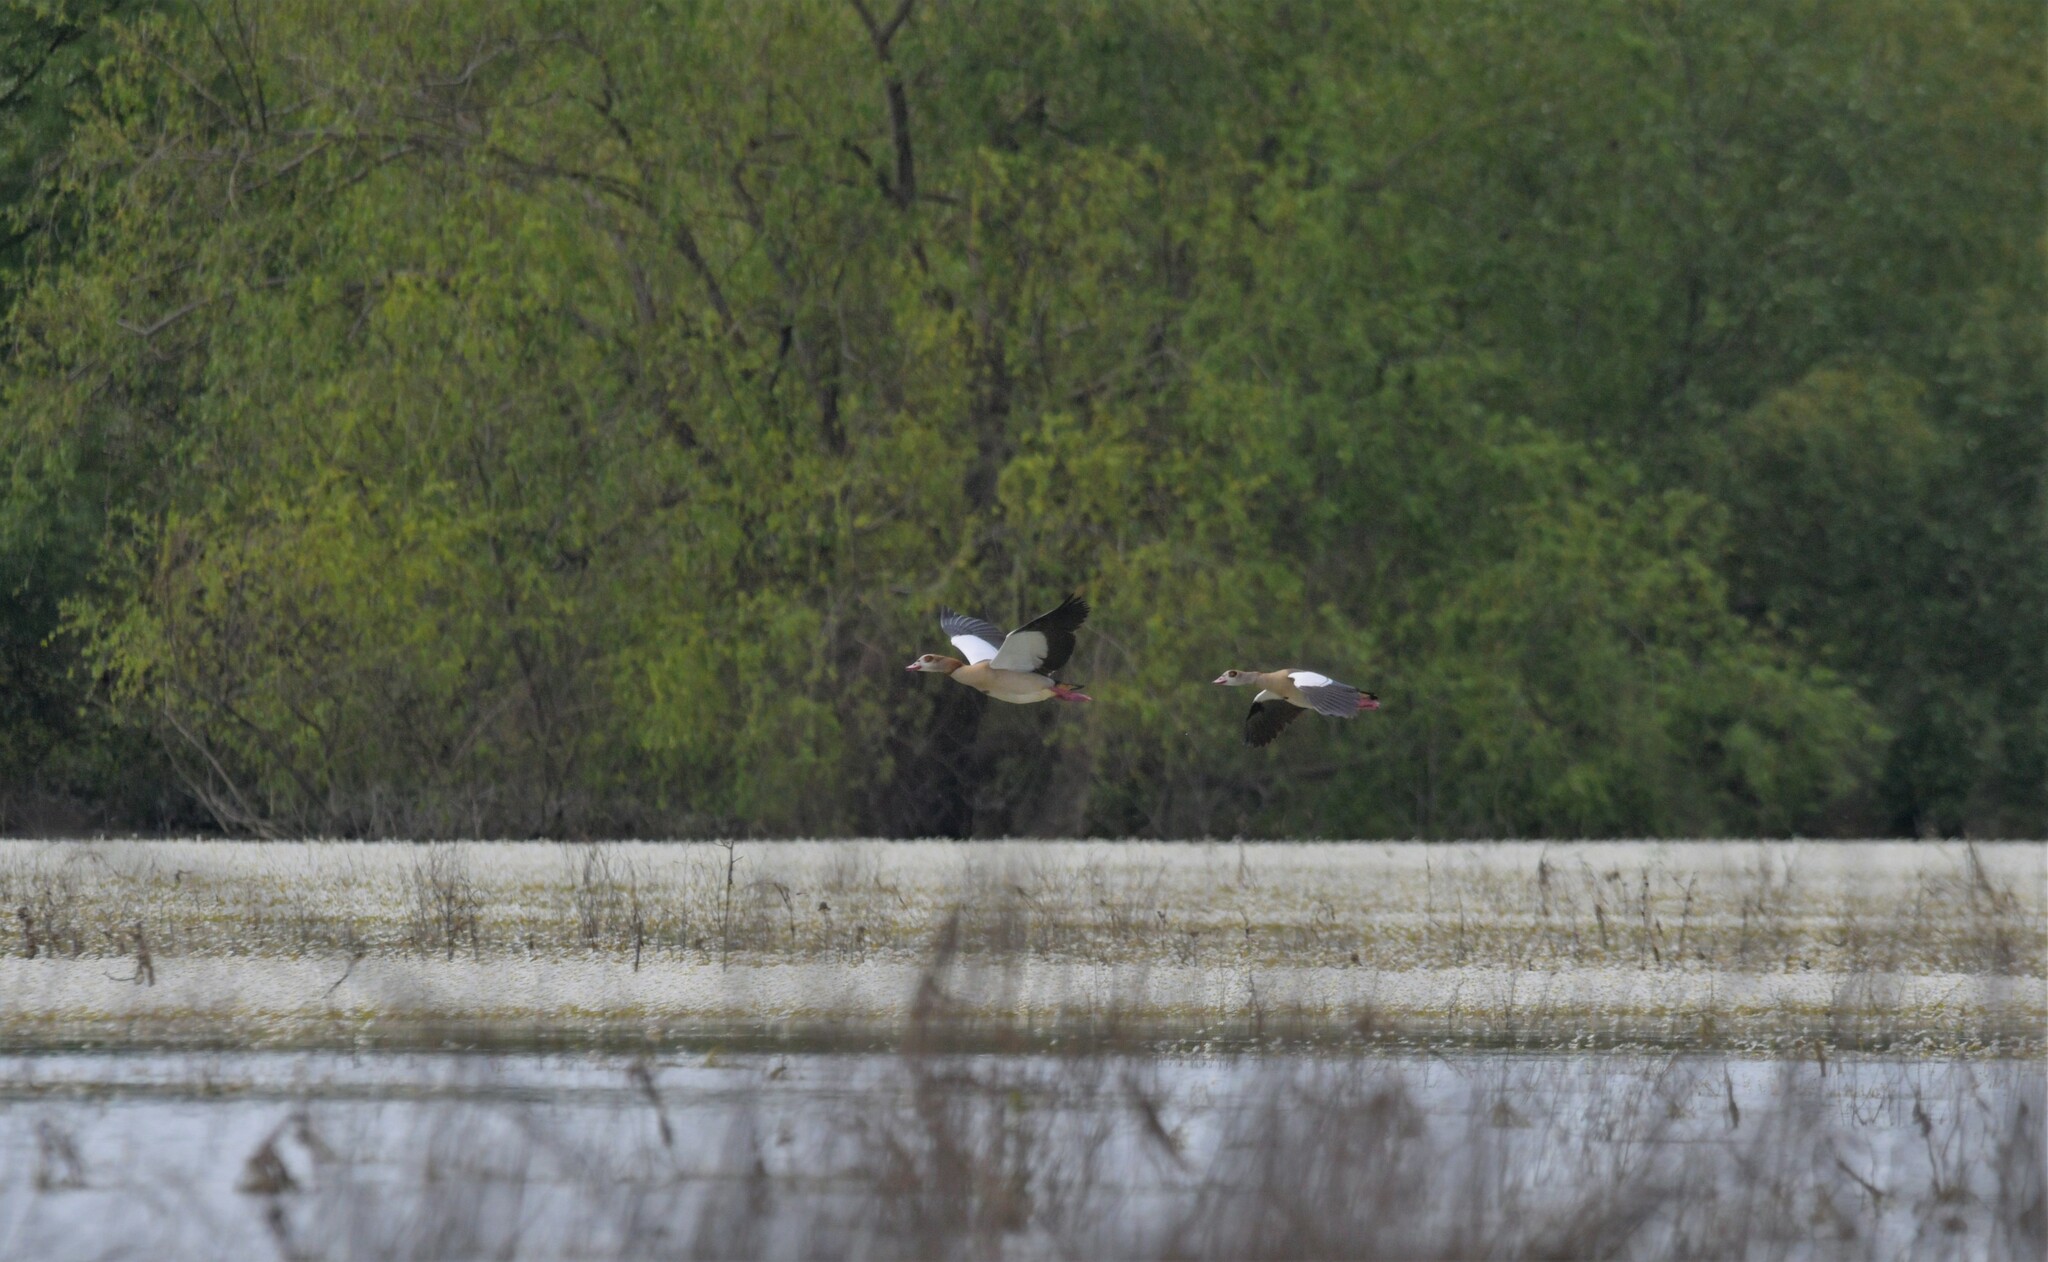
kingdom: Animalia
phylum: Chordata
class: Aves
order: Anseriformes
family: Anatidae
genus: Alopochen
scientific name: Alopochen aegyptiaca
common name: Egyptian goose
